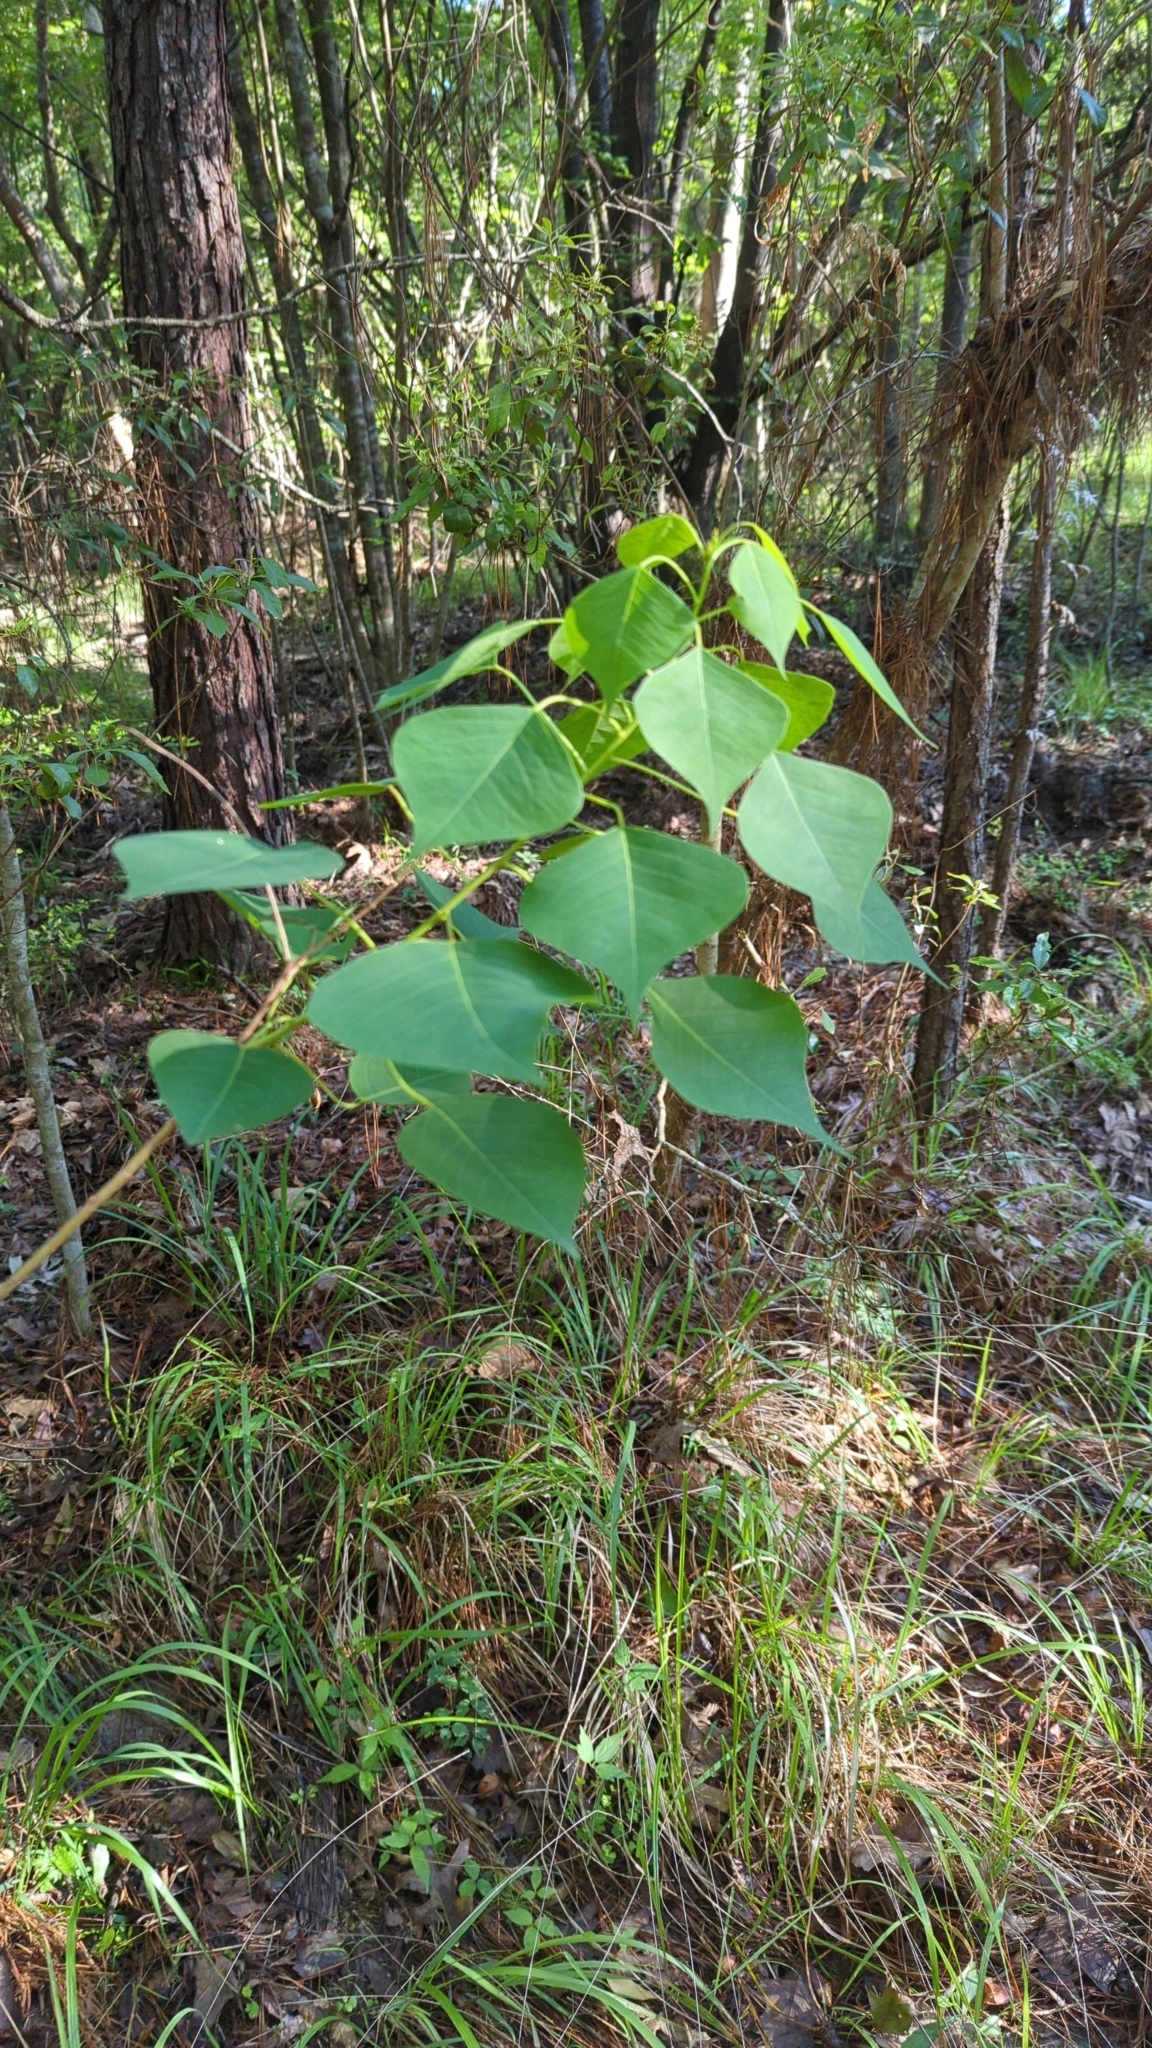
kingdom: Plantae
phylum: Tracheophyta
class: Magnoliopsida
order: Malpighiales
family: Euphorbiaceae
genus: Triadica
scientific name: Triadica sebifera
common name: Chinese tallow
